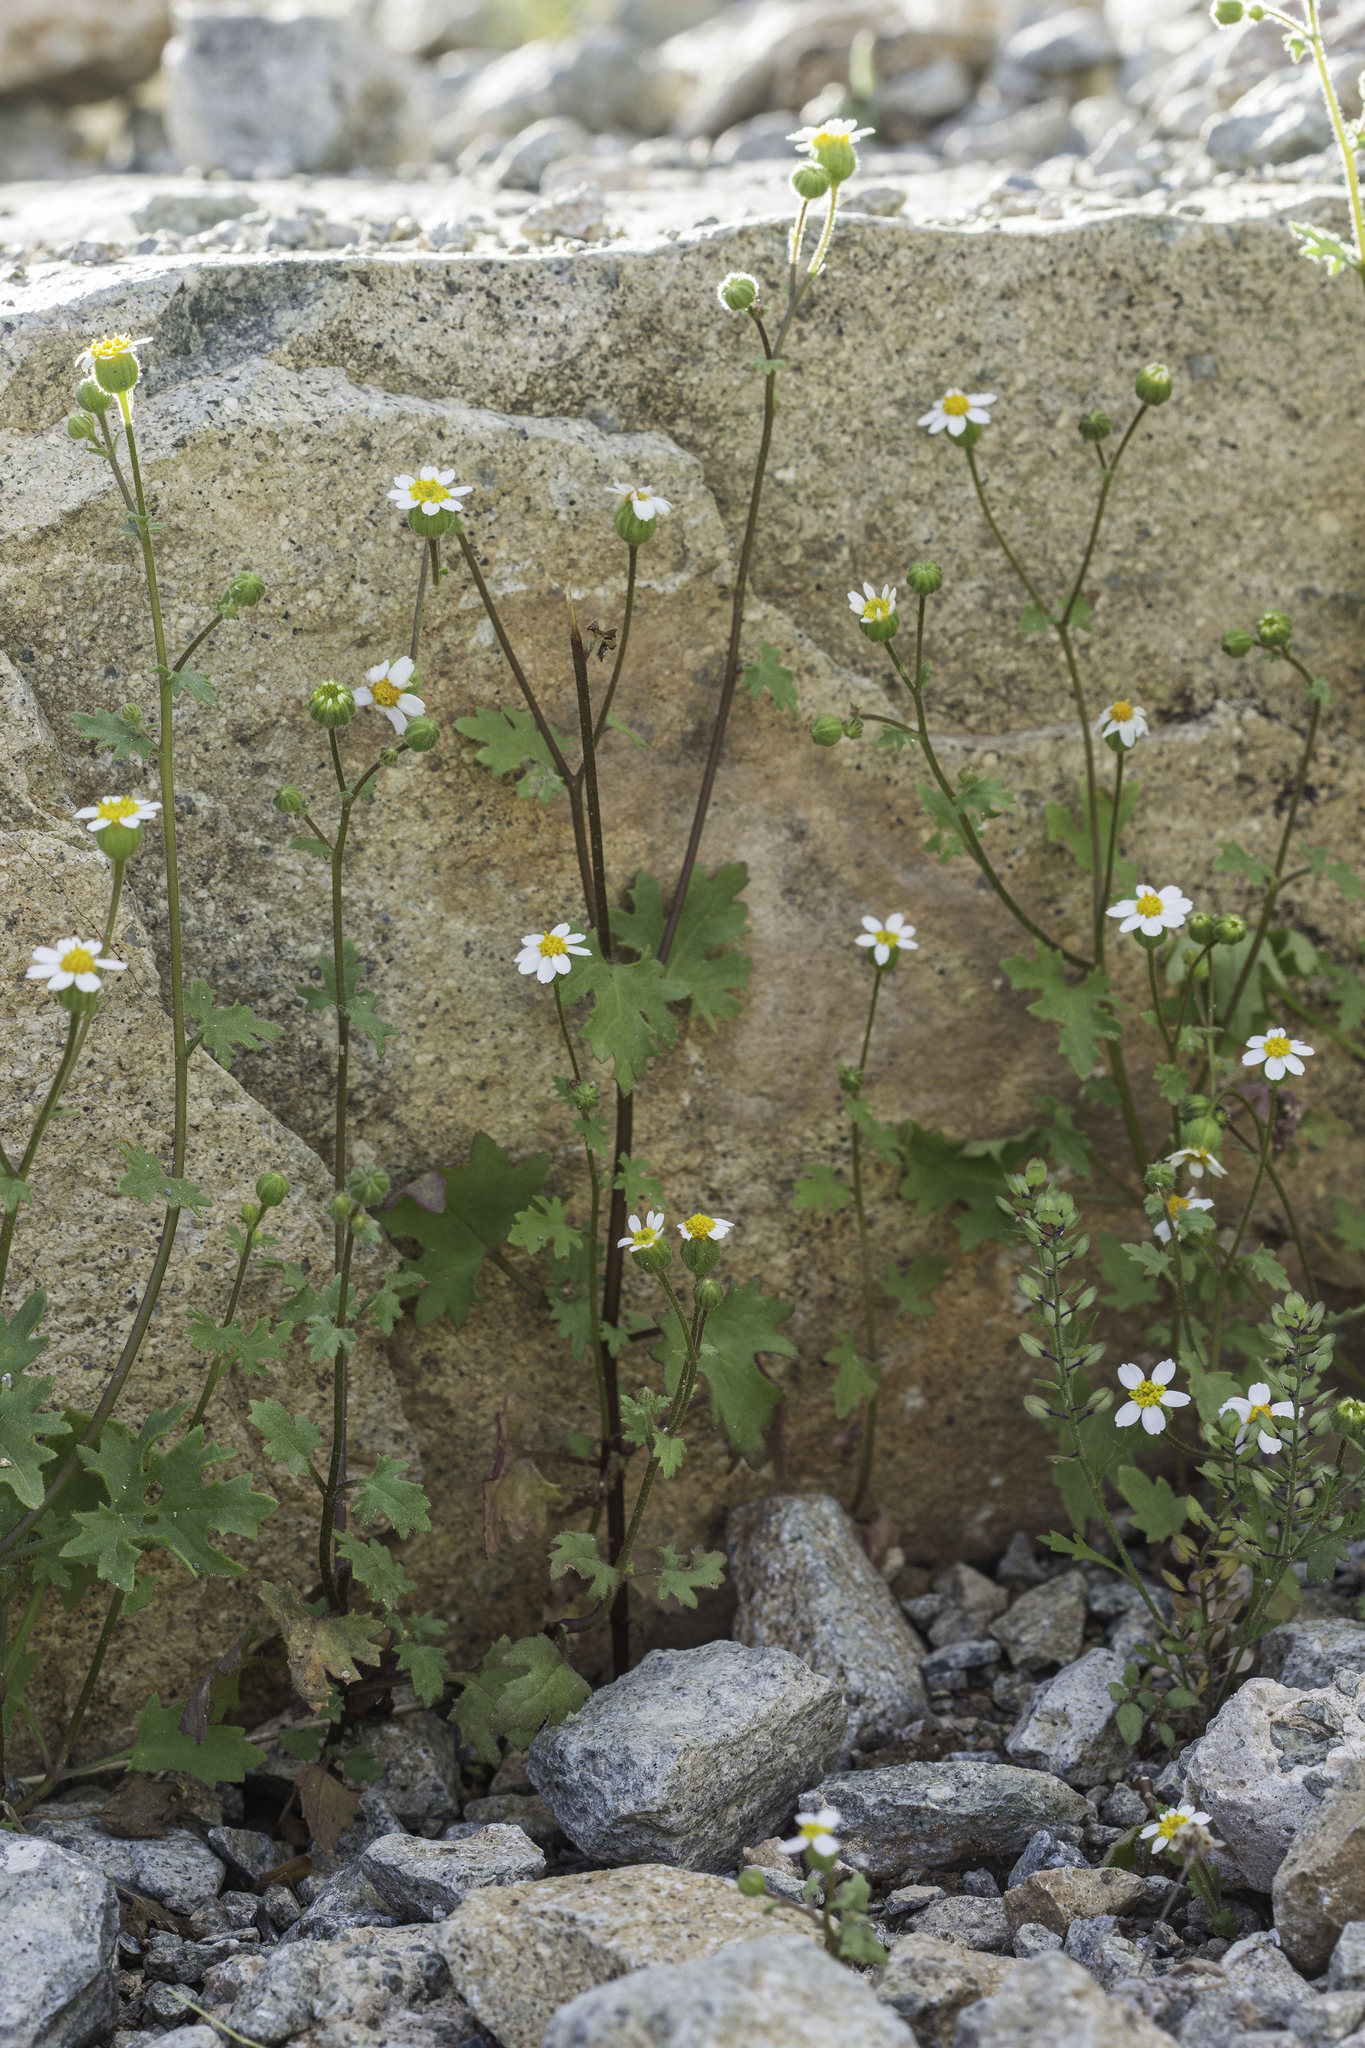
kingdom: Plantae
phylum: Tracheophyta
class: Magnoliopsida
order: Asterales
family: Asteraceae
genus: Laphamia
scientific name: Laphamia emoryi
